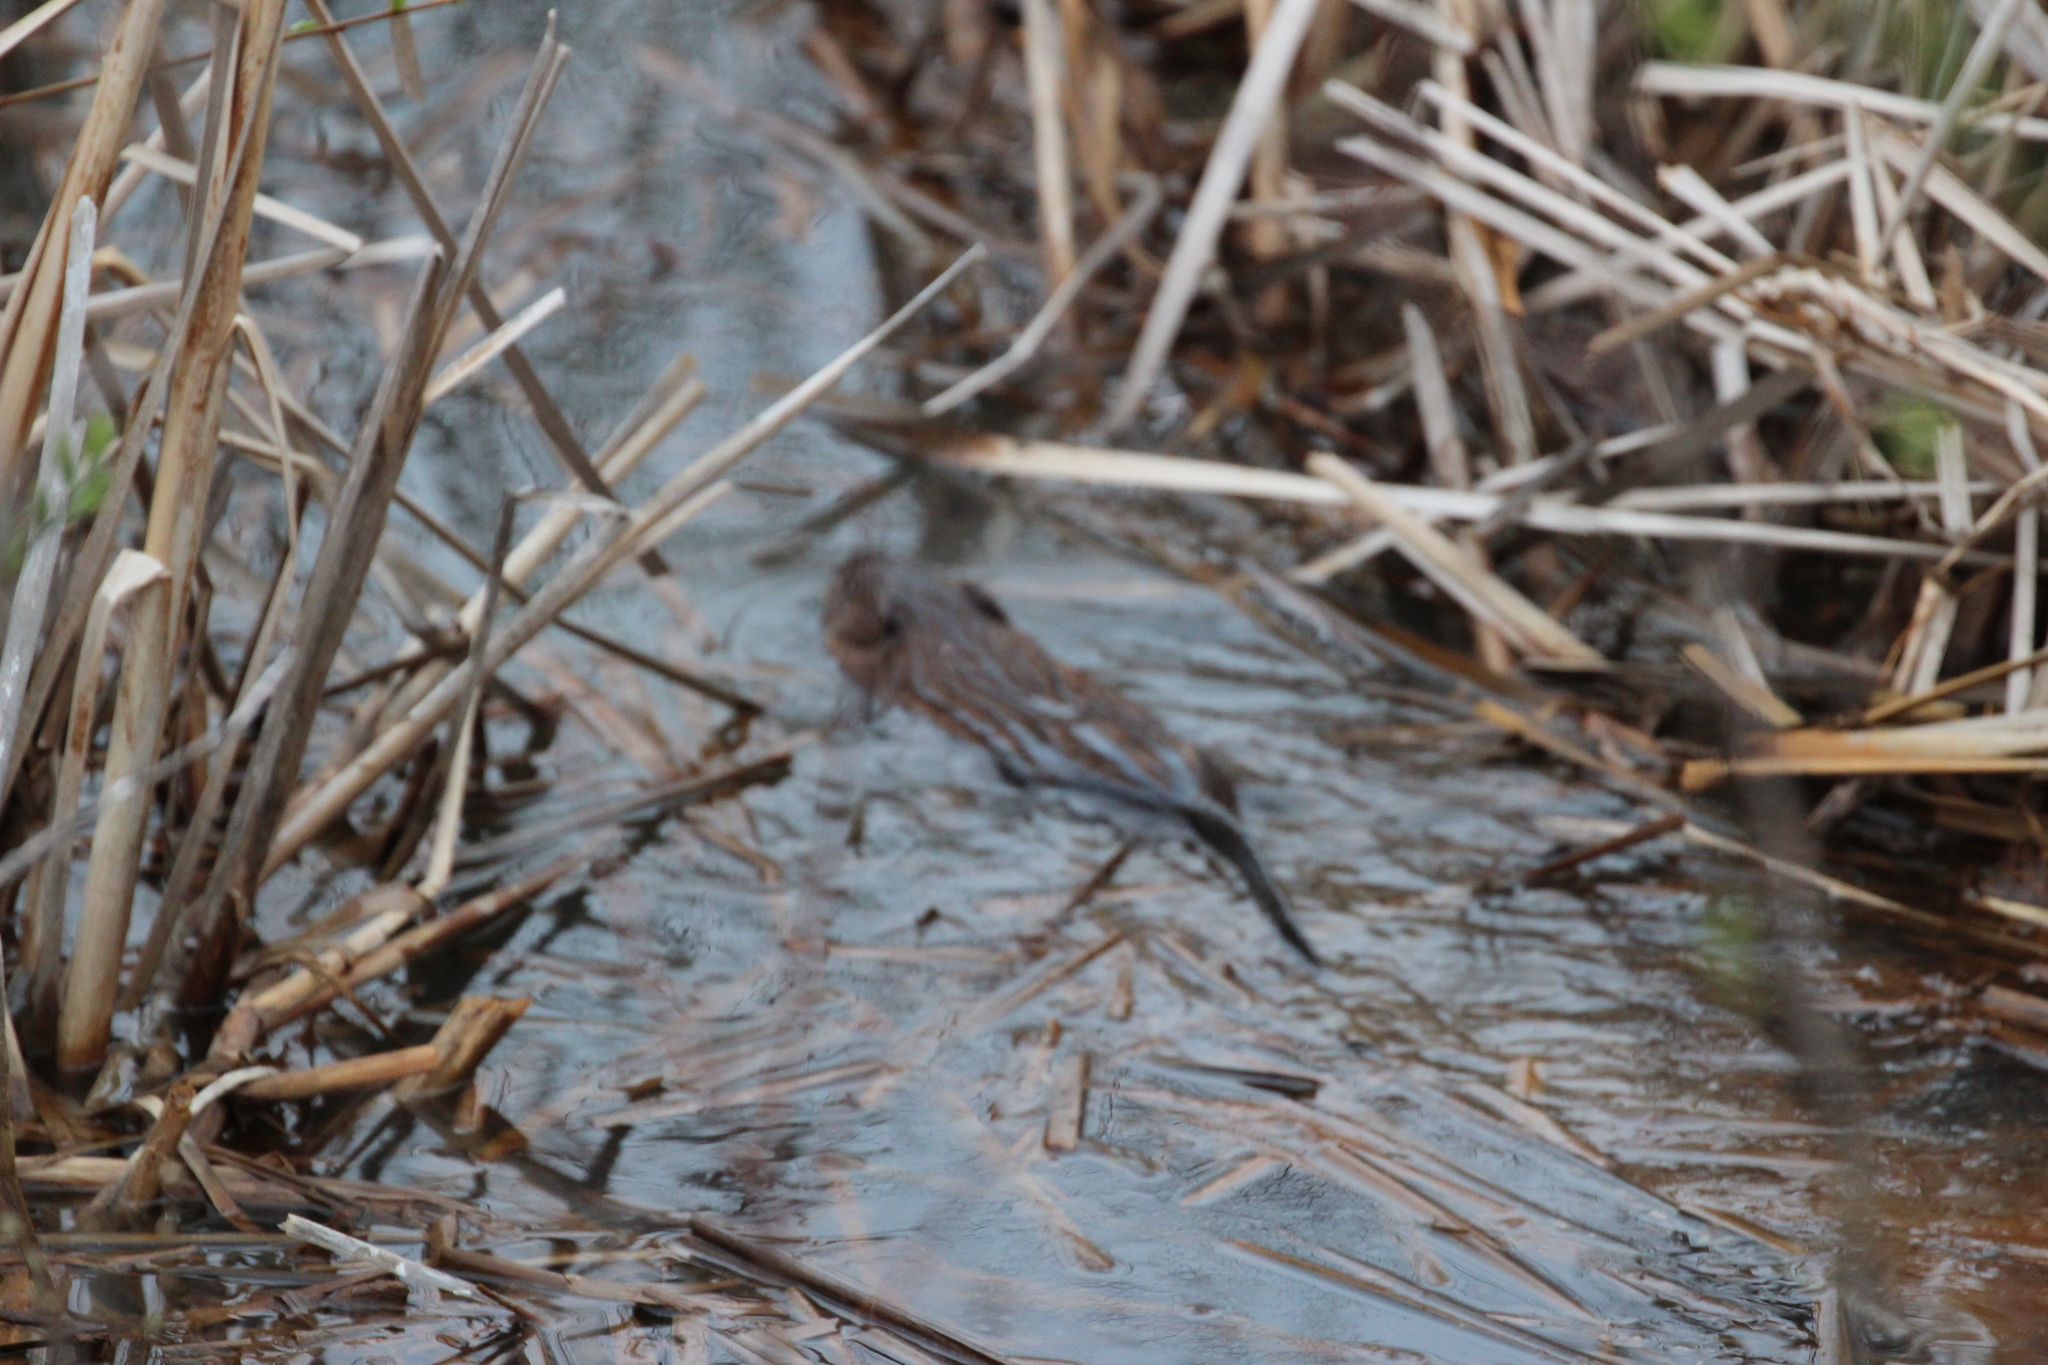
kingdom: Animalia
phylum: Chordata
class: Mammalia
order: Rodentia
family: Cricetidae
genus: Ondatra
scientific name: Ondatra zibethicus
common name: Muskrat
